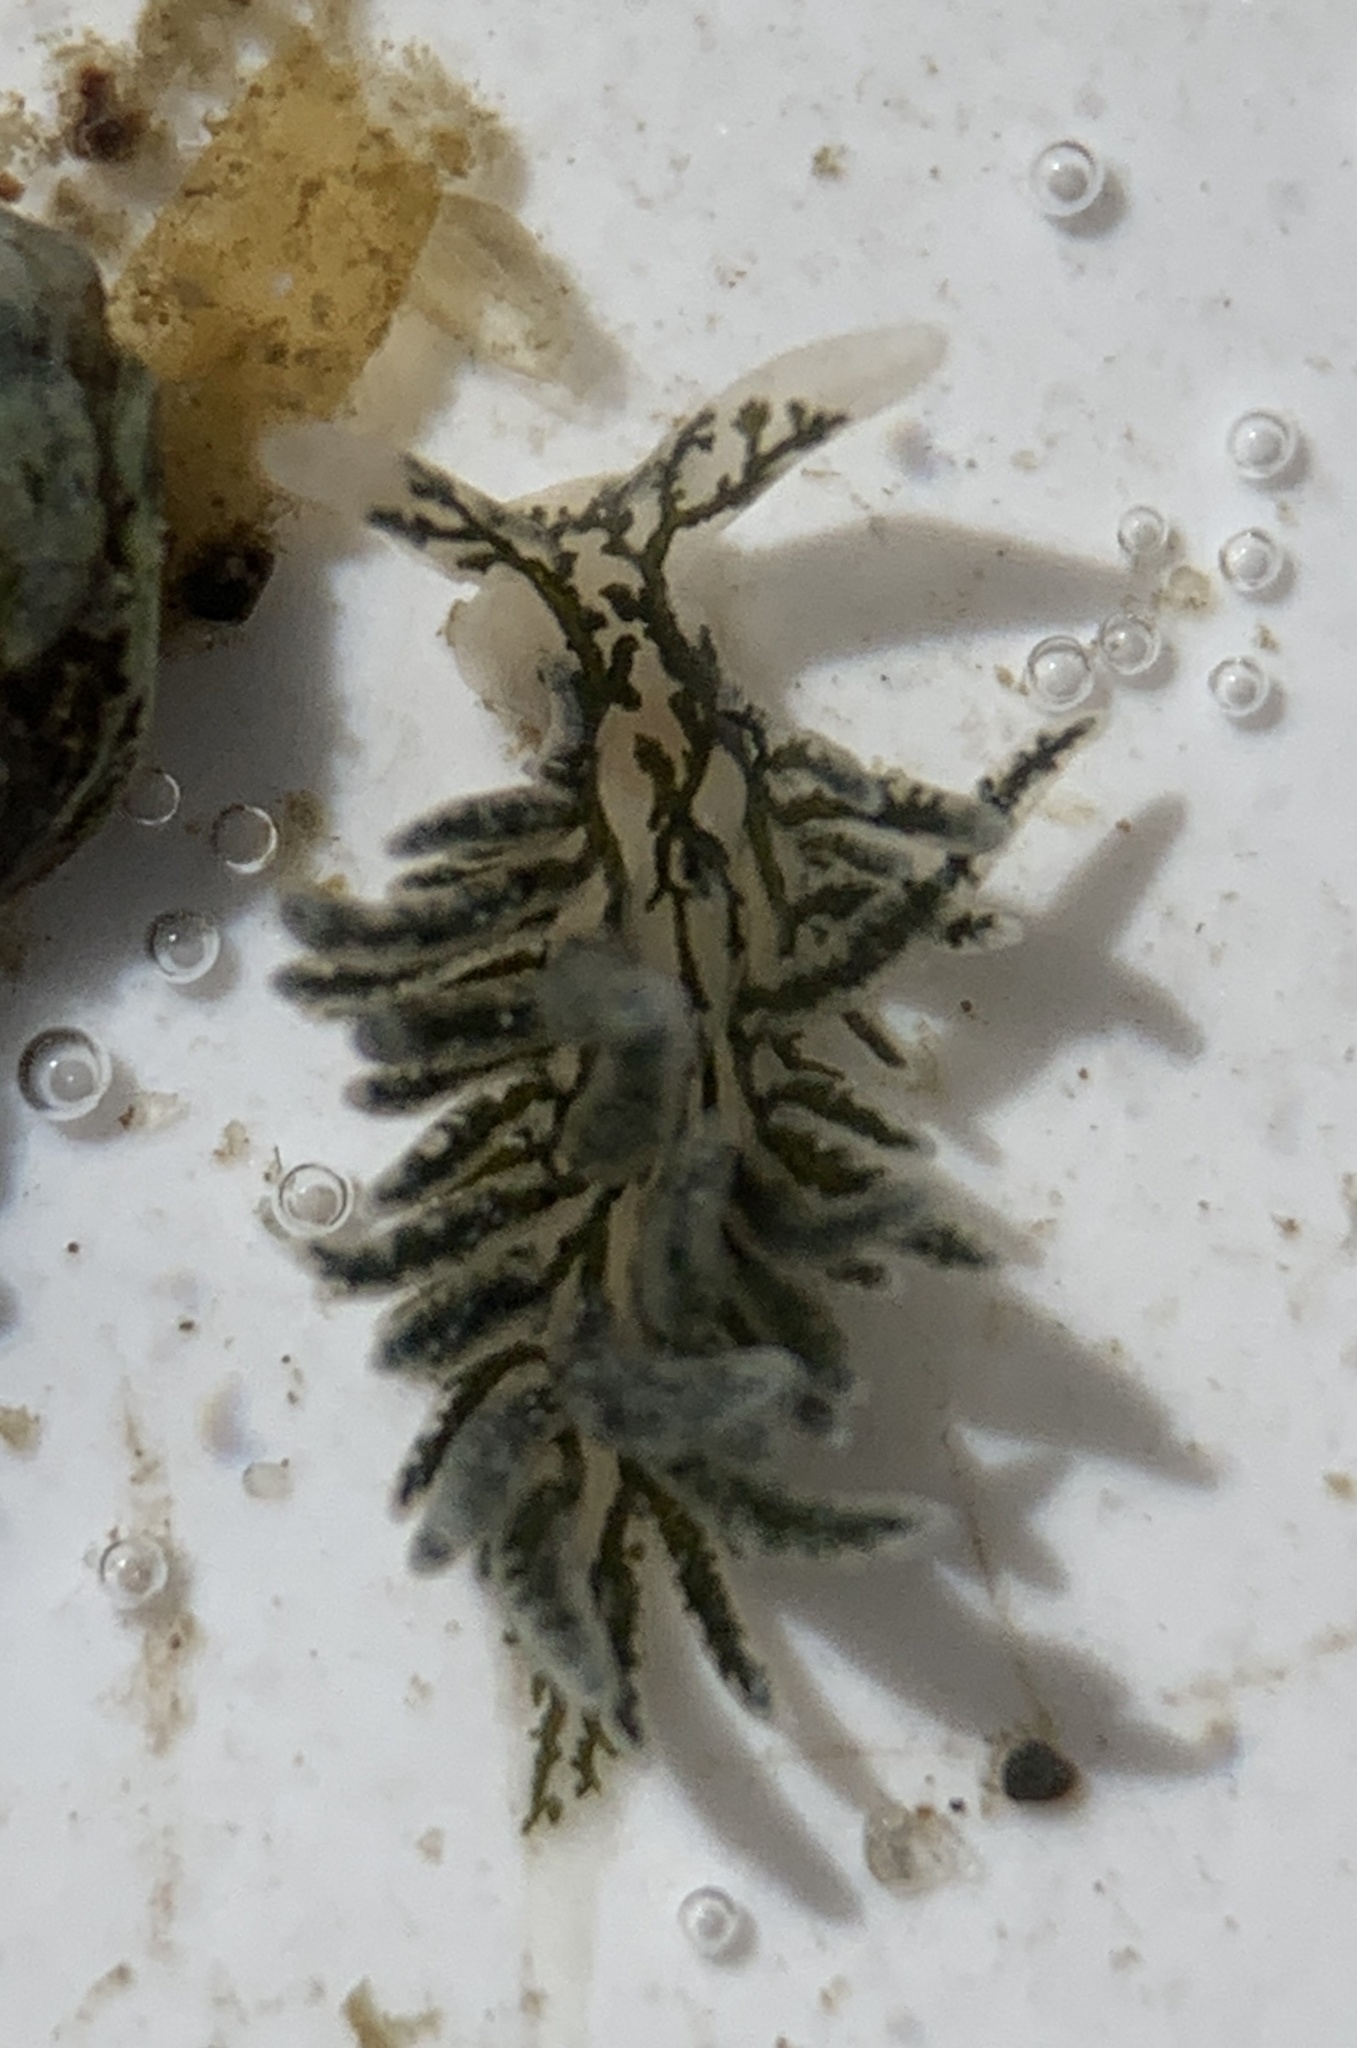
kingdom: Animalia
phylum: Mollusca
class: Gastropoda
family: Limapontiidae
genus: Placida
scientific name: Placida dendritica
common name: Dendritic nudibranch
